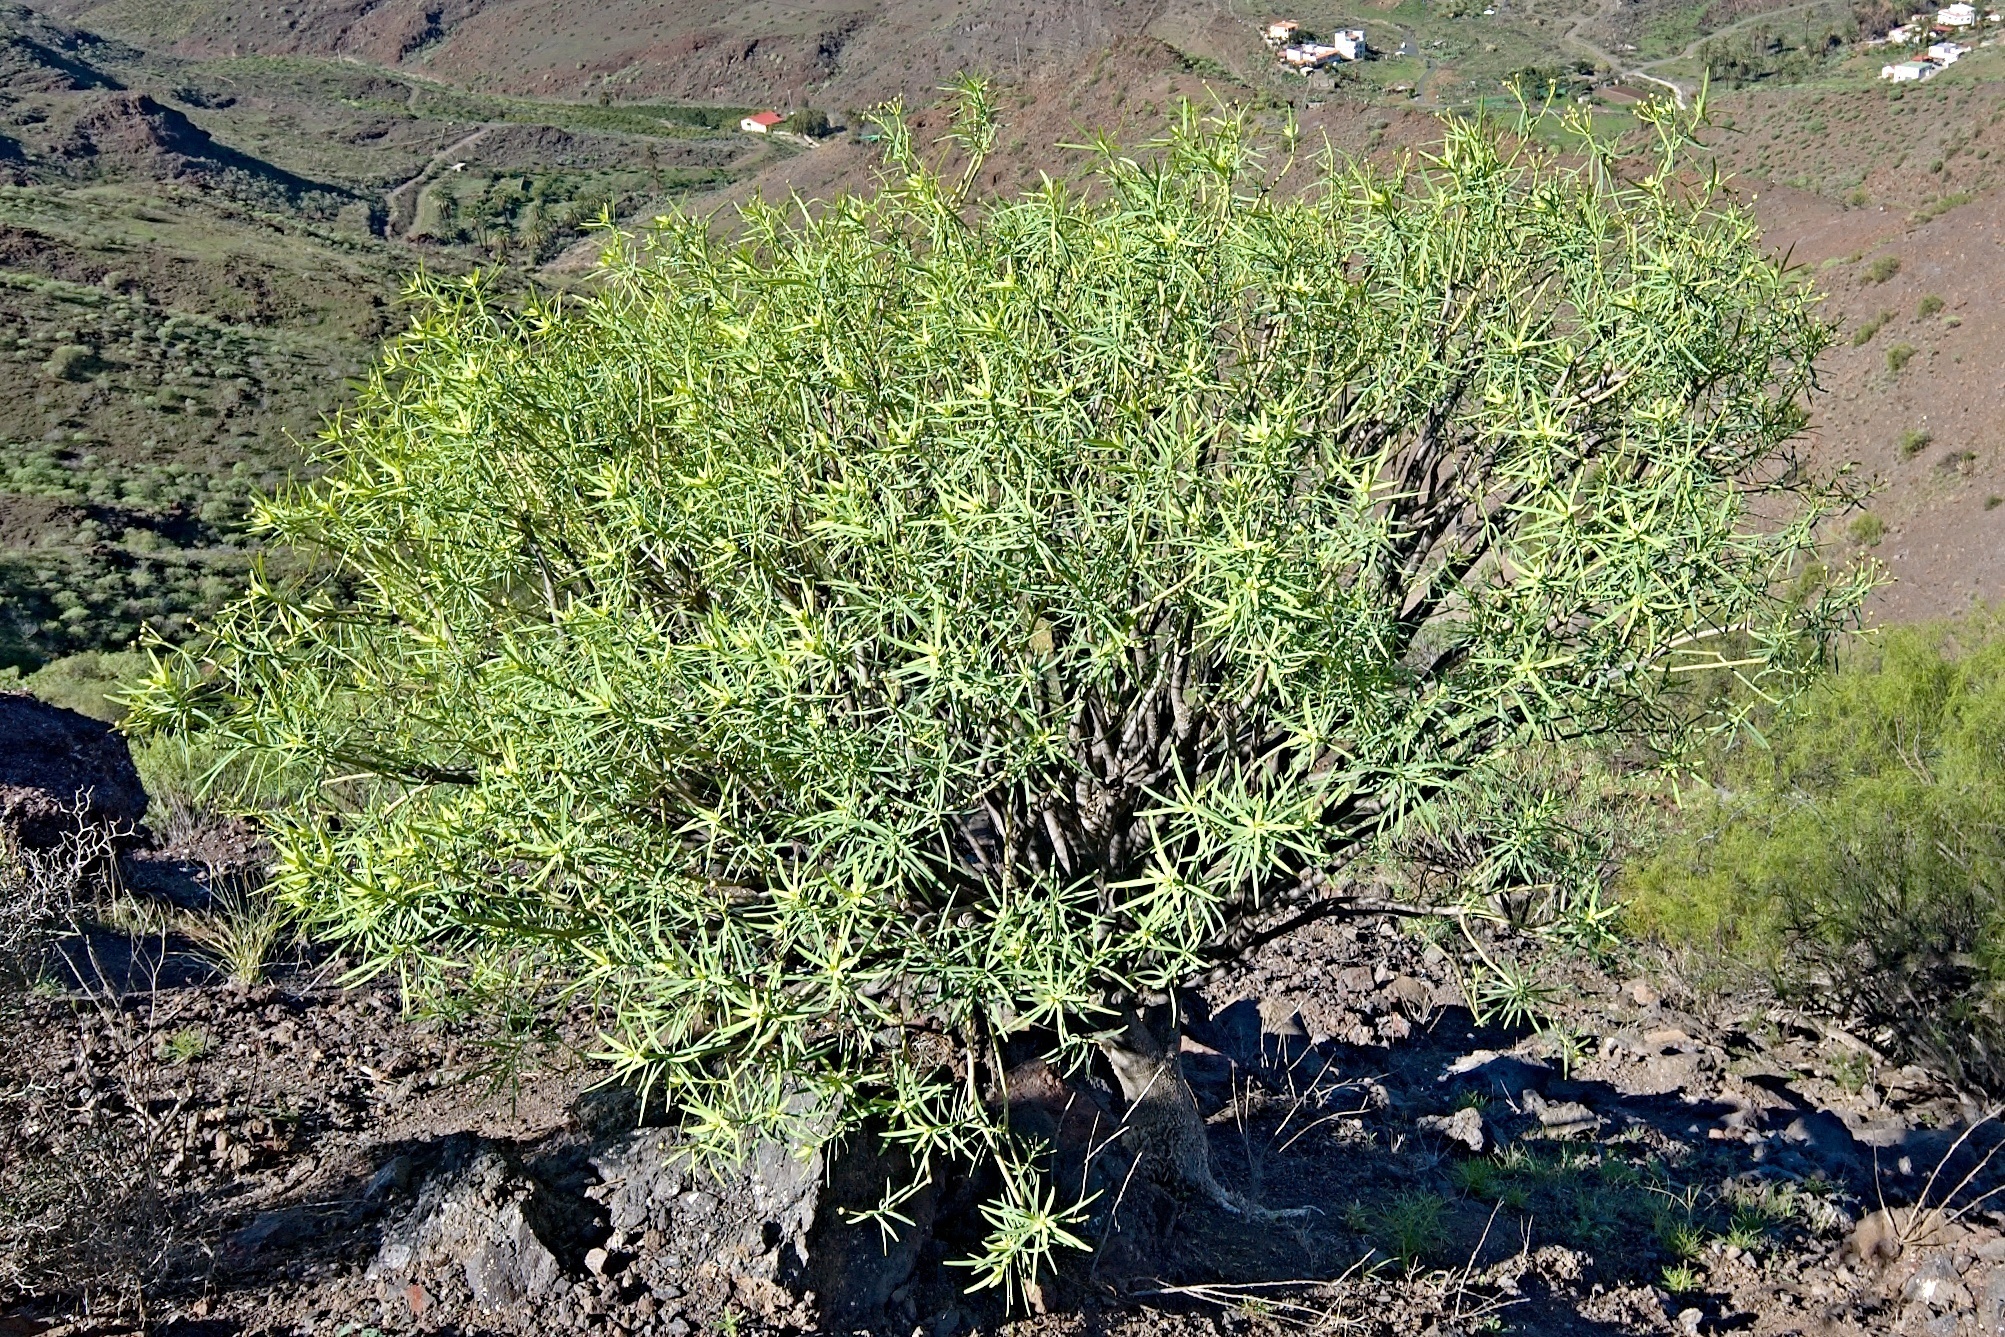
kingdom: Plantae
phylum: Tracheophyta
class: Magnoliopsida
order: Malpighiales
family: Euphorbiaceae
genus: Euphorbia
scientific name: Euphorbia regis-jubae
